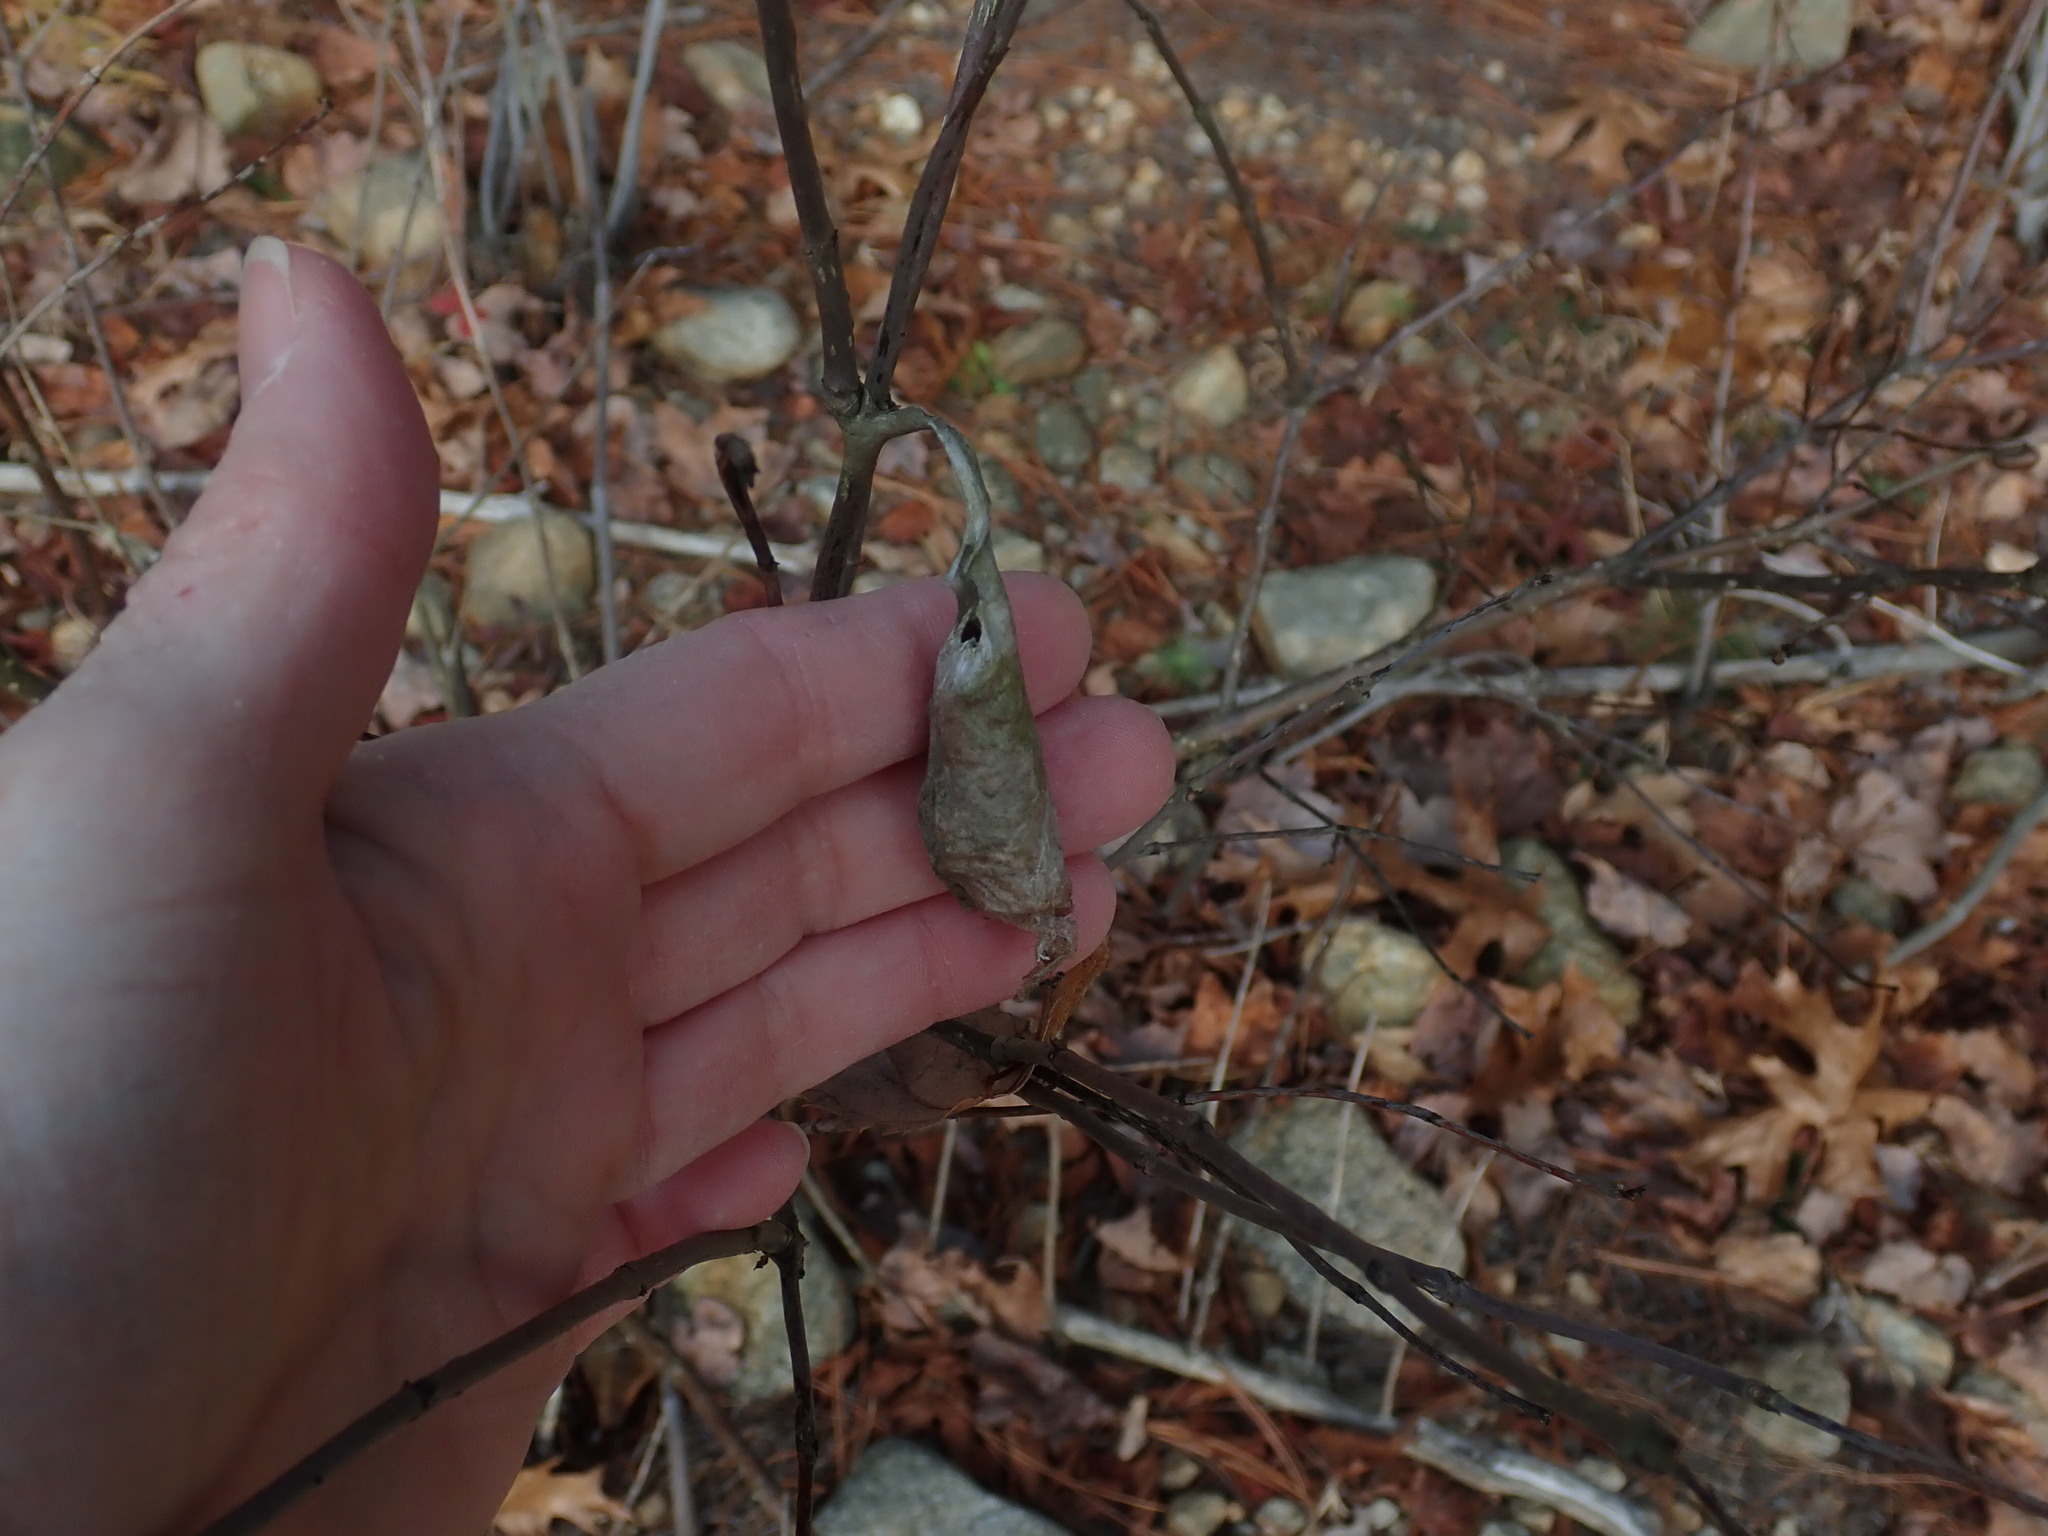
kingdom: Animalia
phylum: Arthropoda
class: Insecta
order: Lepidoptera
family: Saturniidae
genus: Callosamia
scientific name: Callosamia promethea
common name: Promethea silkmoth
